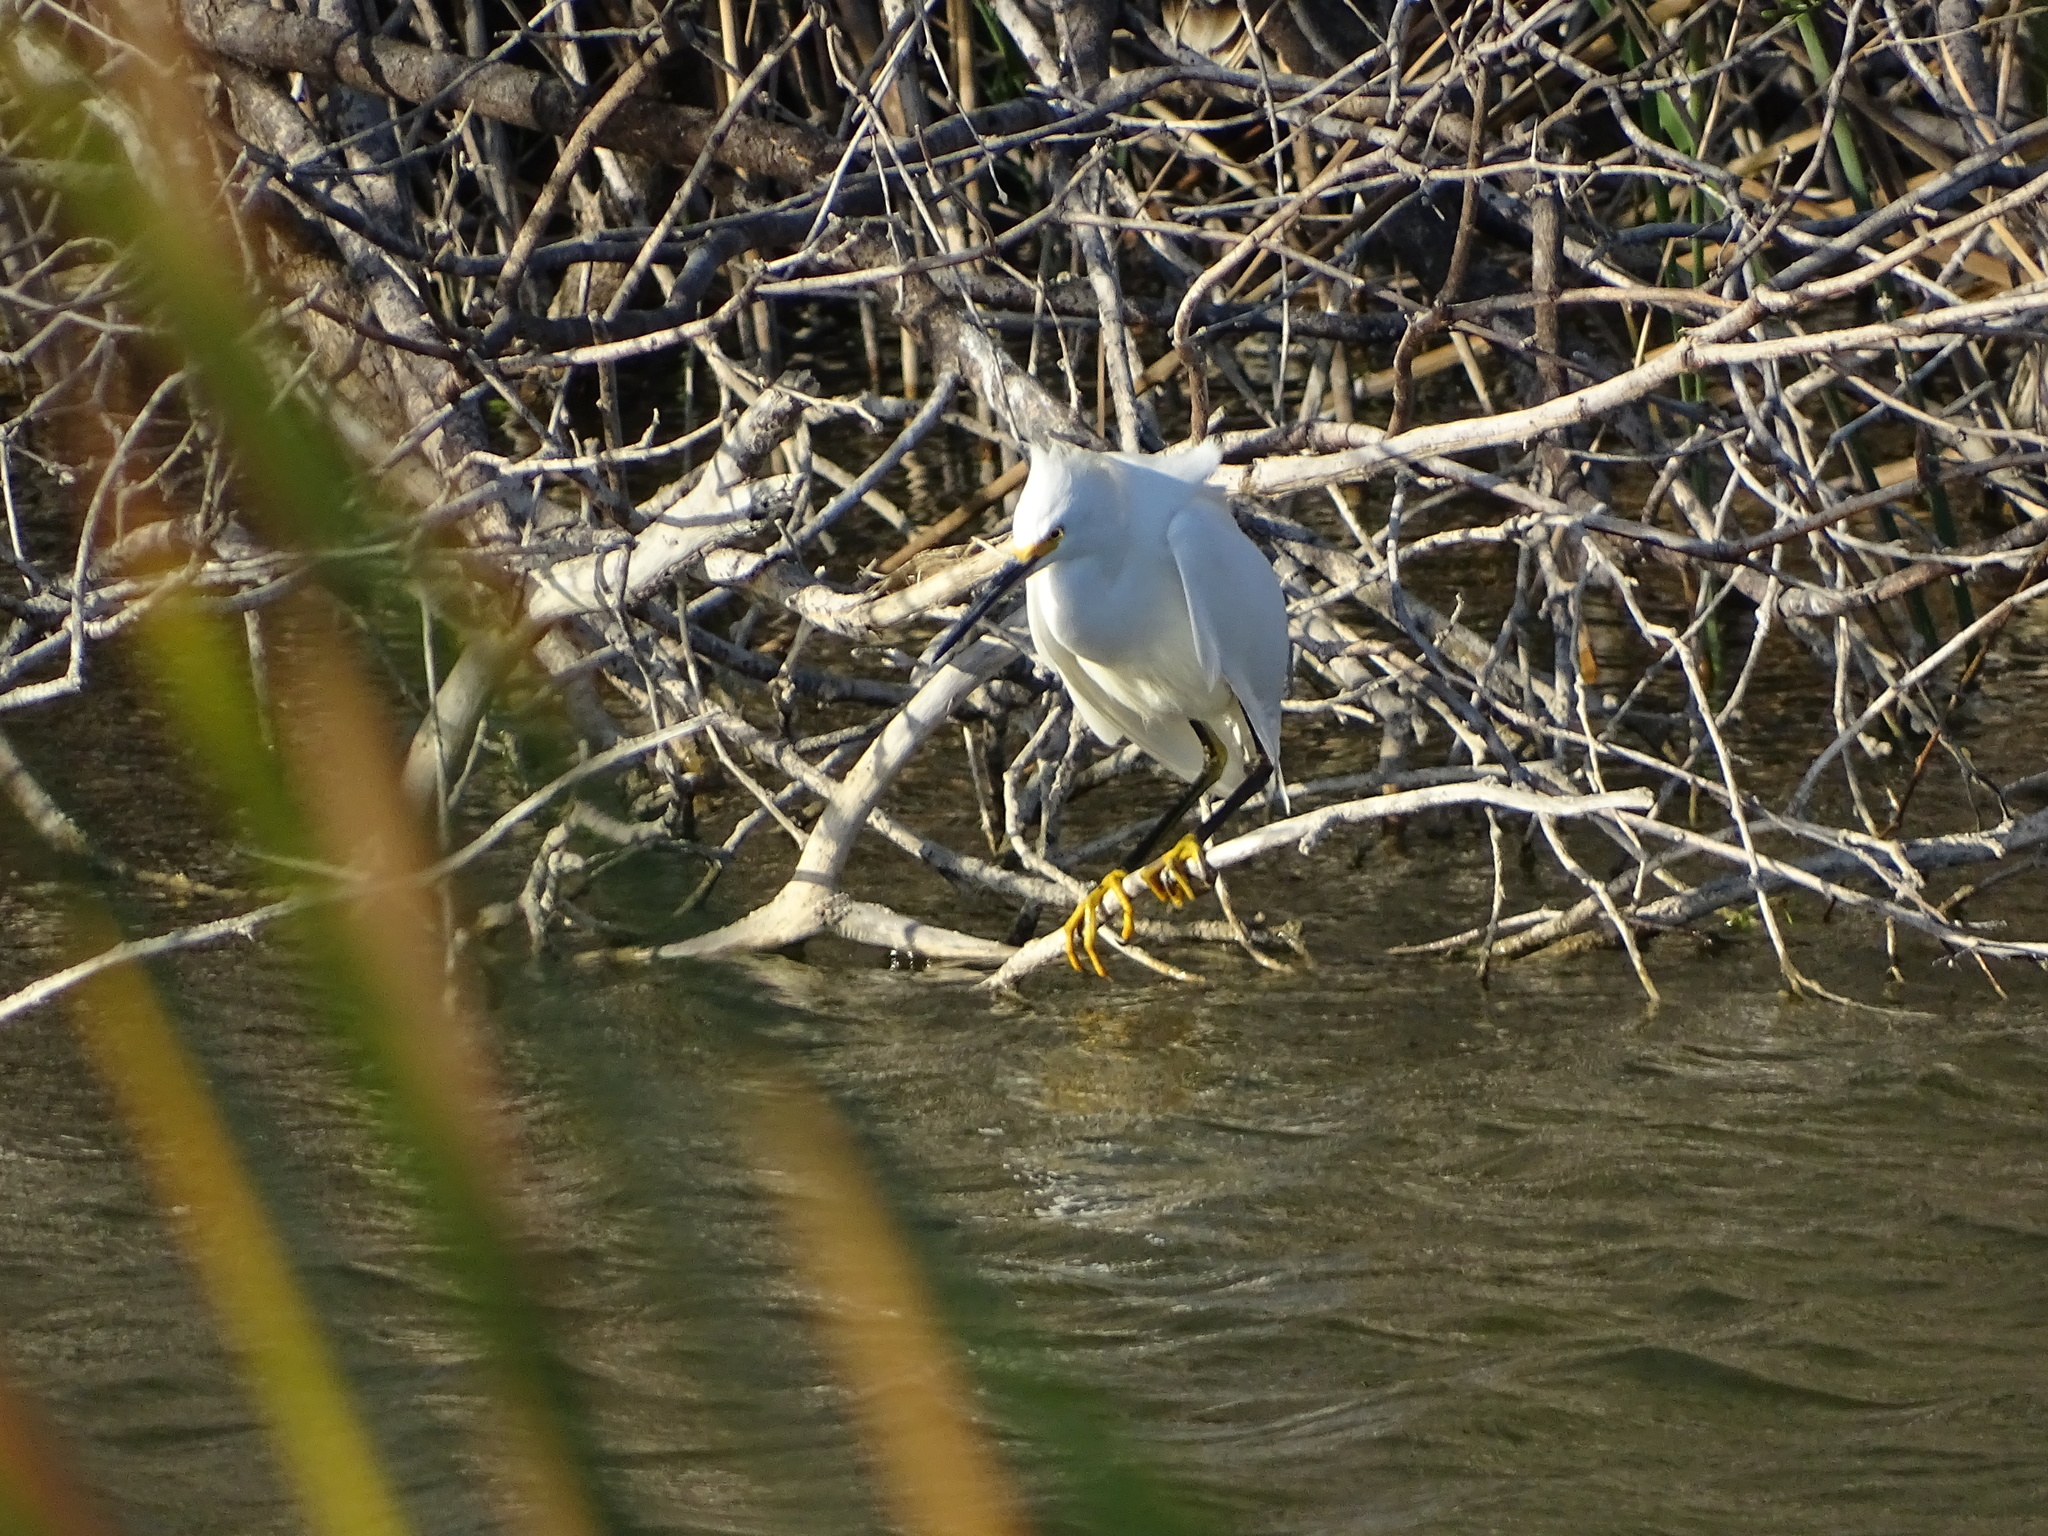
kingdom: Animalia
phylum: Chordata
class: Aves
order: Pelecaniformes
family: Ardeidae
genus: Egretta
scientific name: Egretta thula
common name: Snowy egret
